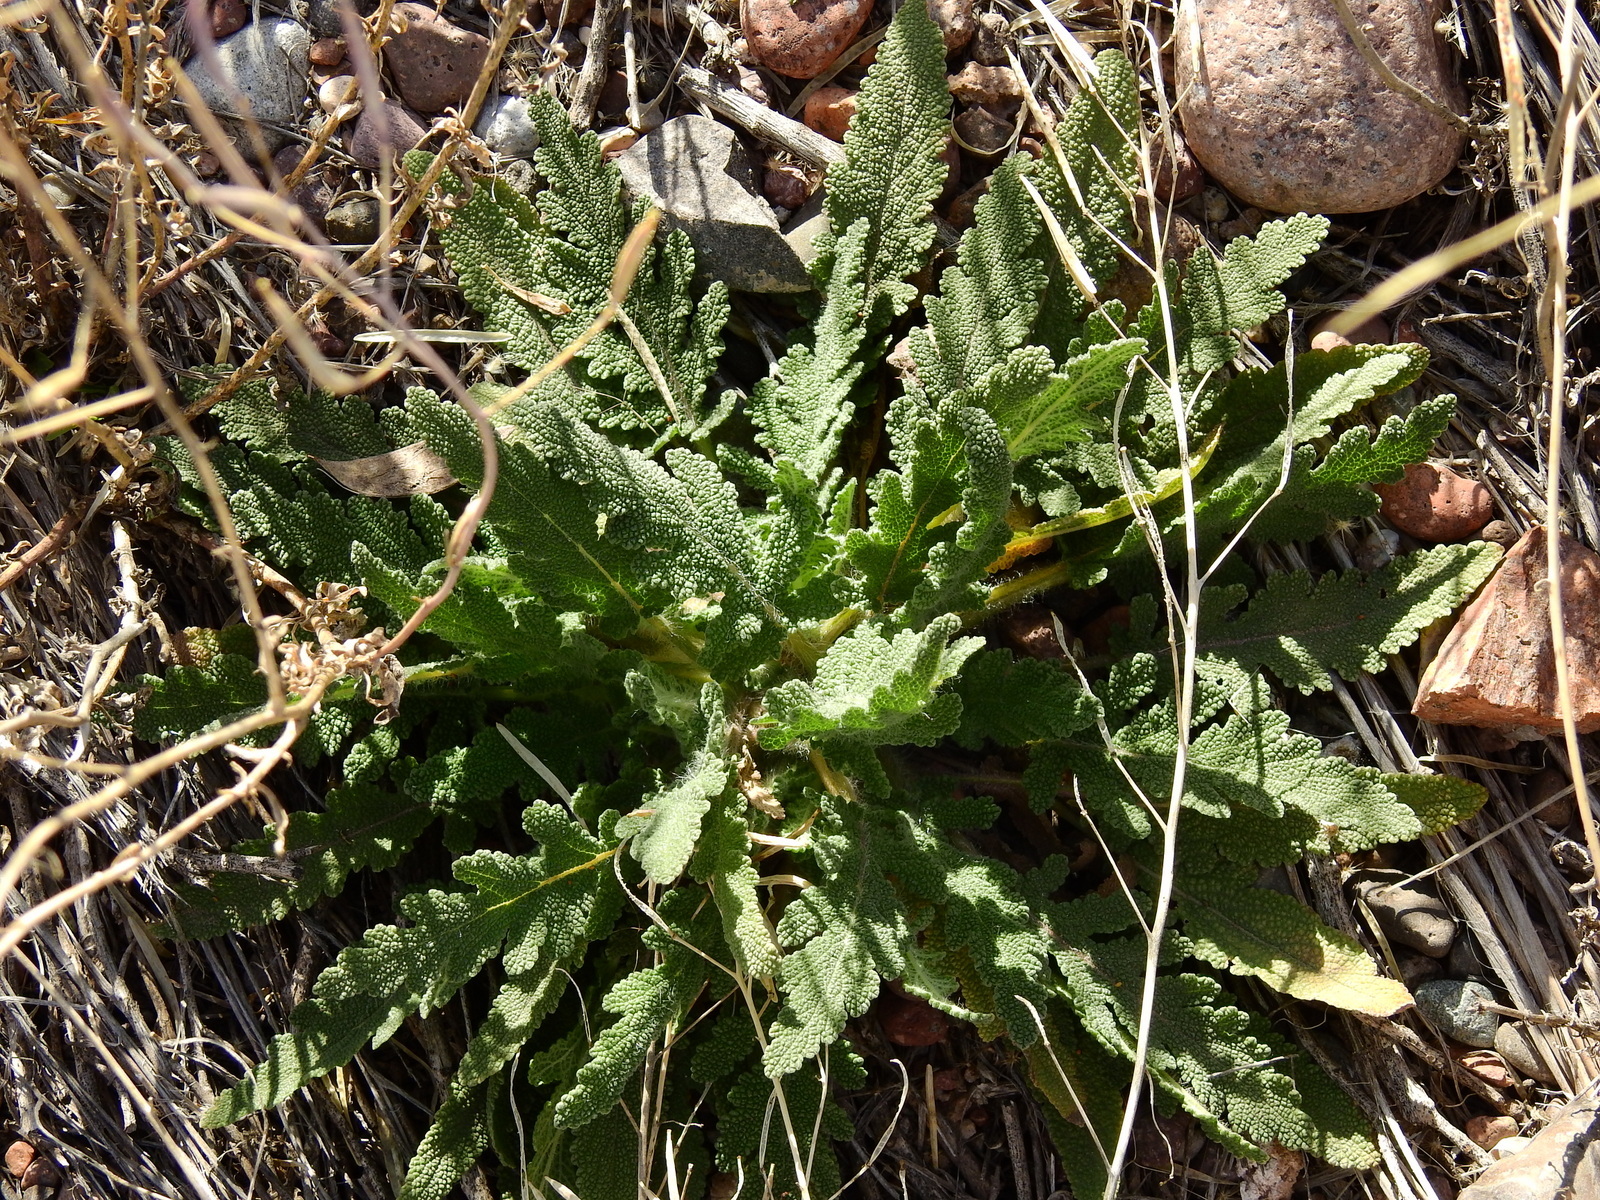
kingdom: Plantae
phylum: Tracheophyta
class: Magnoliopsida
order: Lamiales
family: Lamiaceae
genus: Salvia
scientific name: Salvia verbenaca
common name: Wild clary
